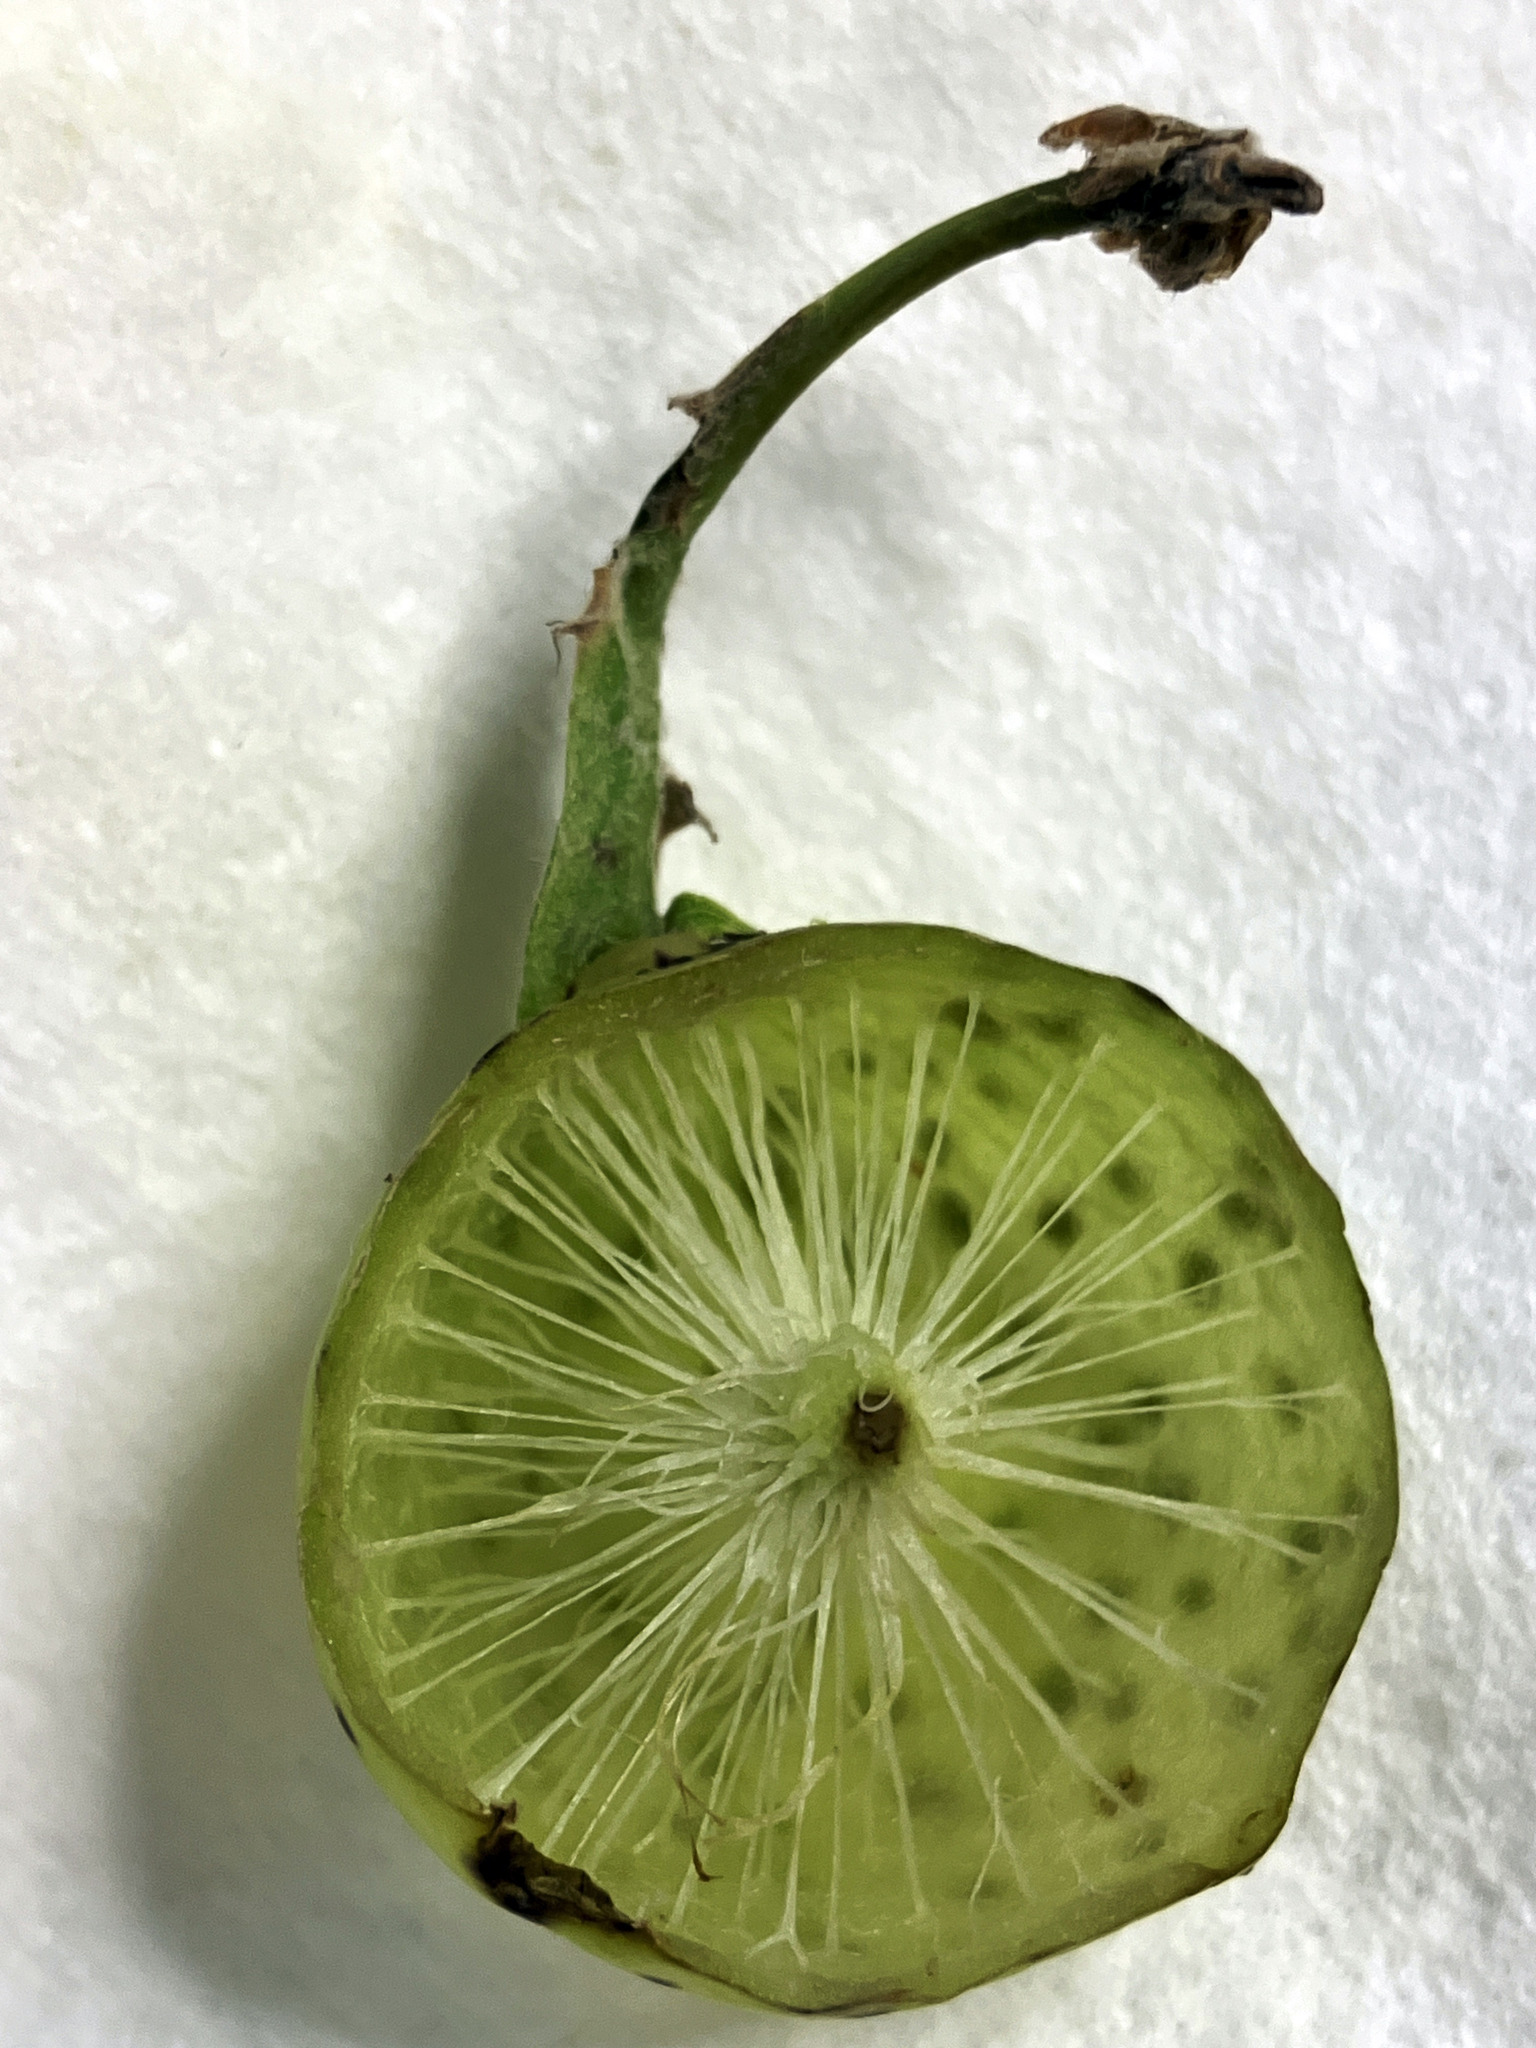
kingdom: Animalia
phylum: Arthropoda
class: Insecta
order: Hymenoptera
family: Cynipidae
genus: Amphibolips
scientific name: Amphibolips
